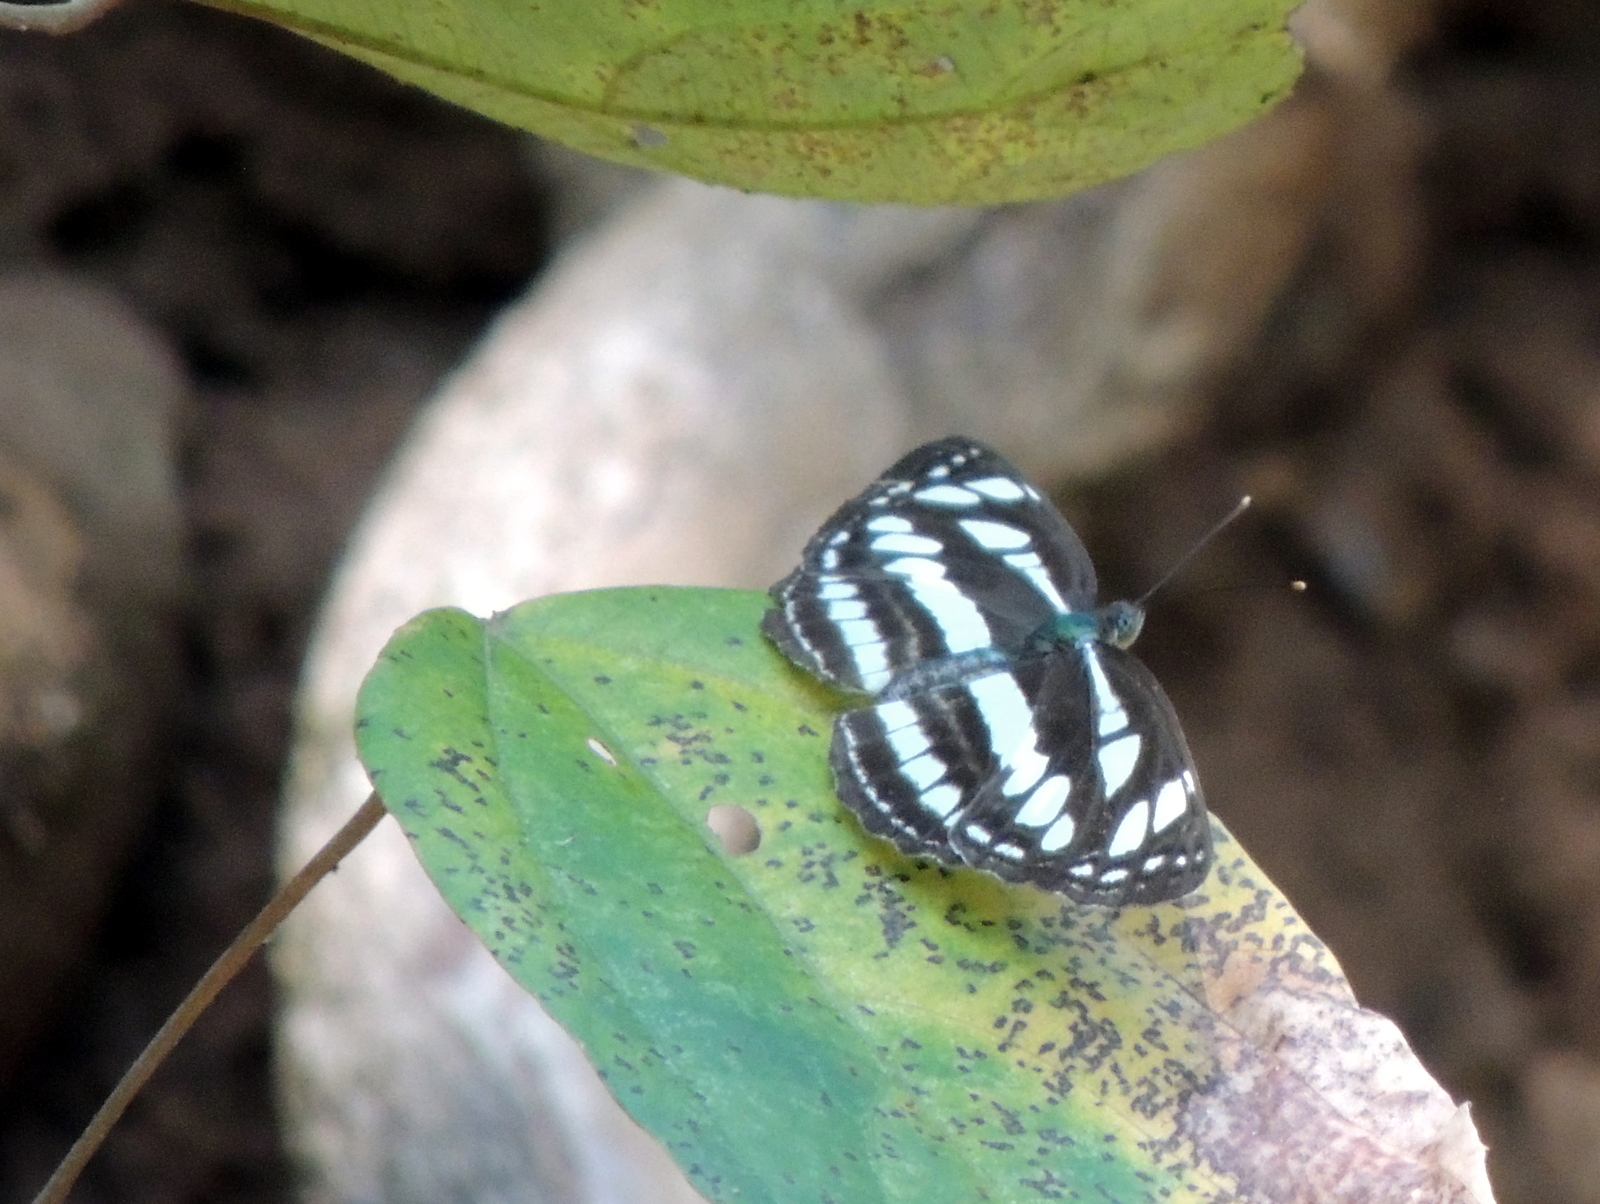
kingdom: Animalia
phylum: Arthropoda
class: Insecta
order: Lepidoptera
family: Nymphalidae
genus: Neptis
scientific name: Neptis hylas
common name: Common sailer
